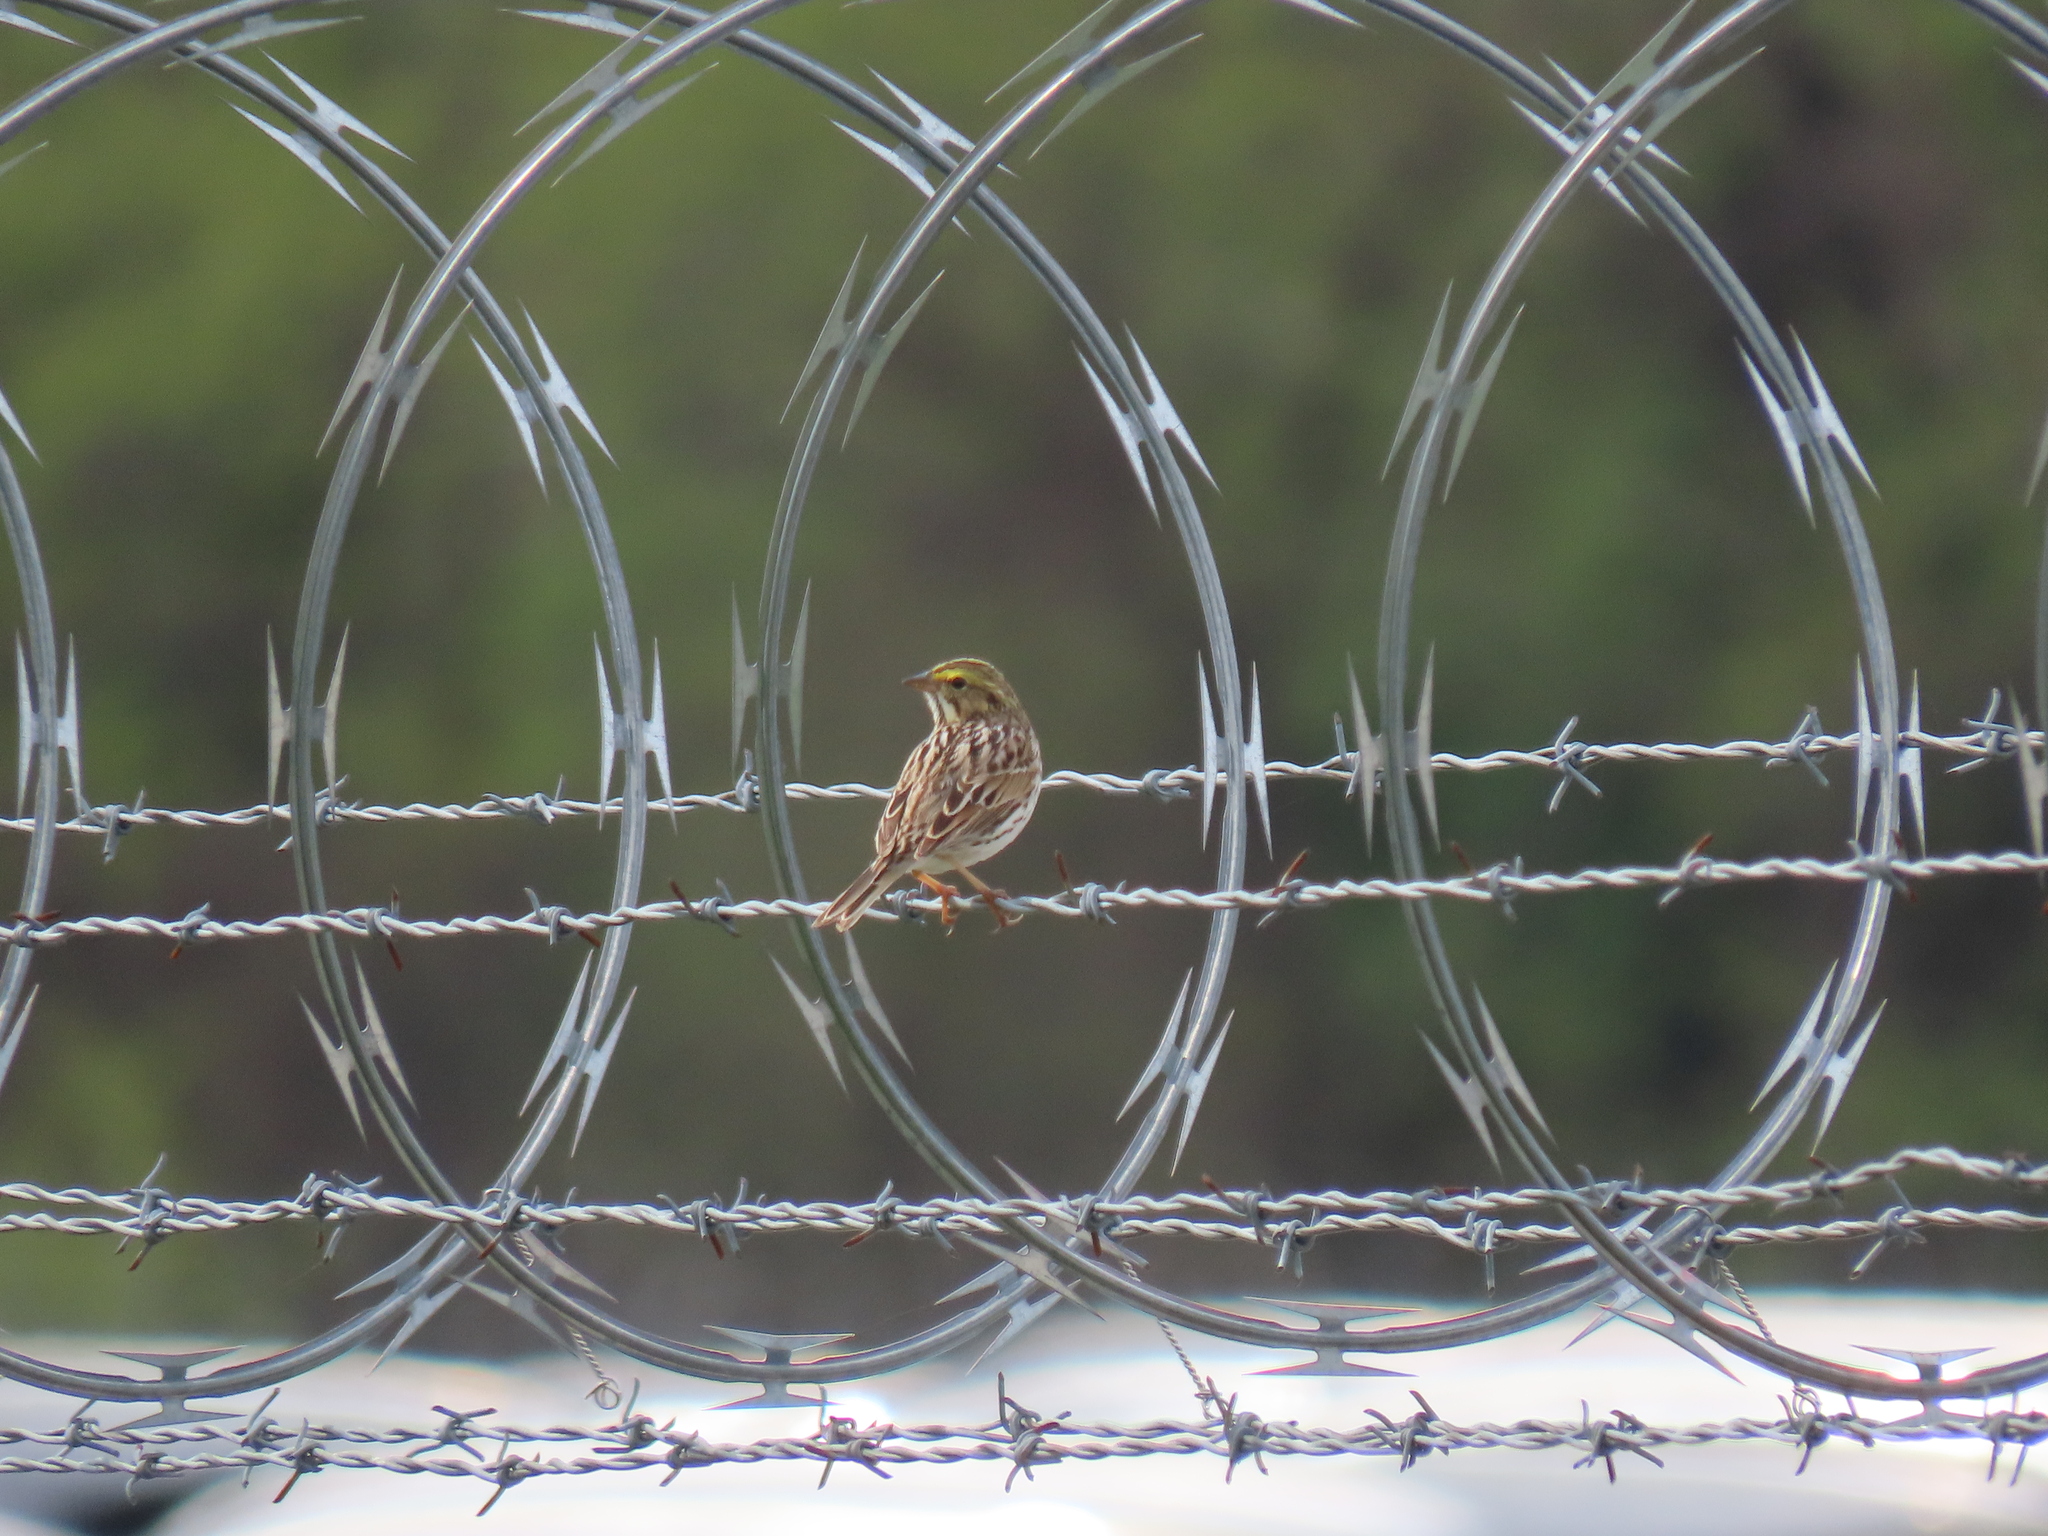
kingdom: Animalia
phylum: Chordata
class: Aves
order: Passeriformes
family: Passerellidae
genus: Passerculus
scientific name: Passerculus sandwichensis
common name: Savannah sparrow
